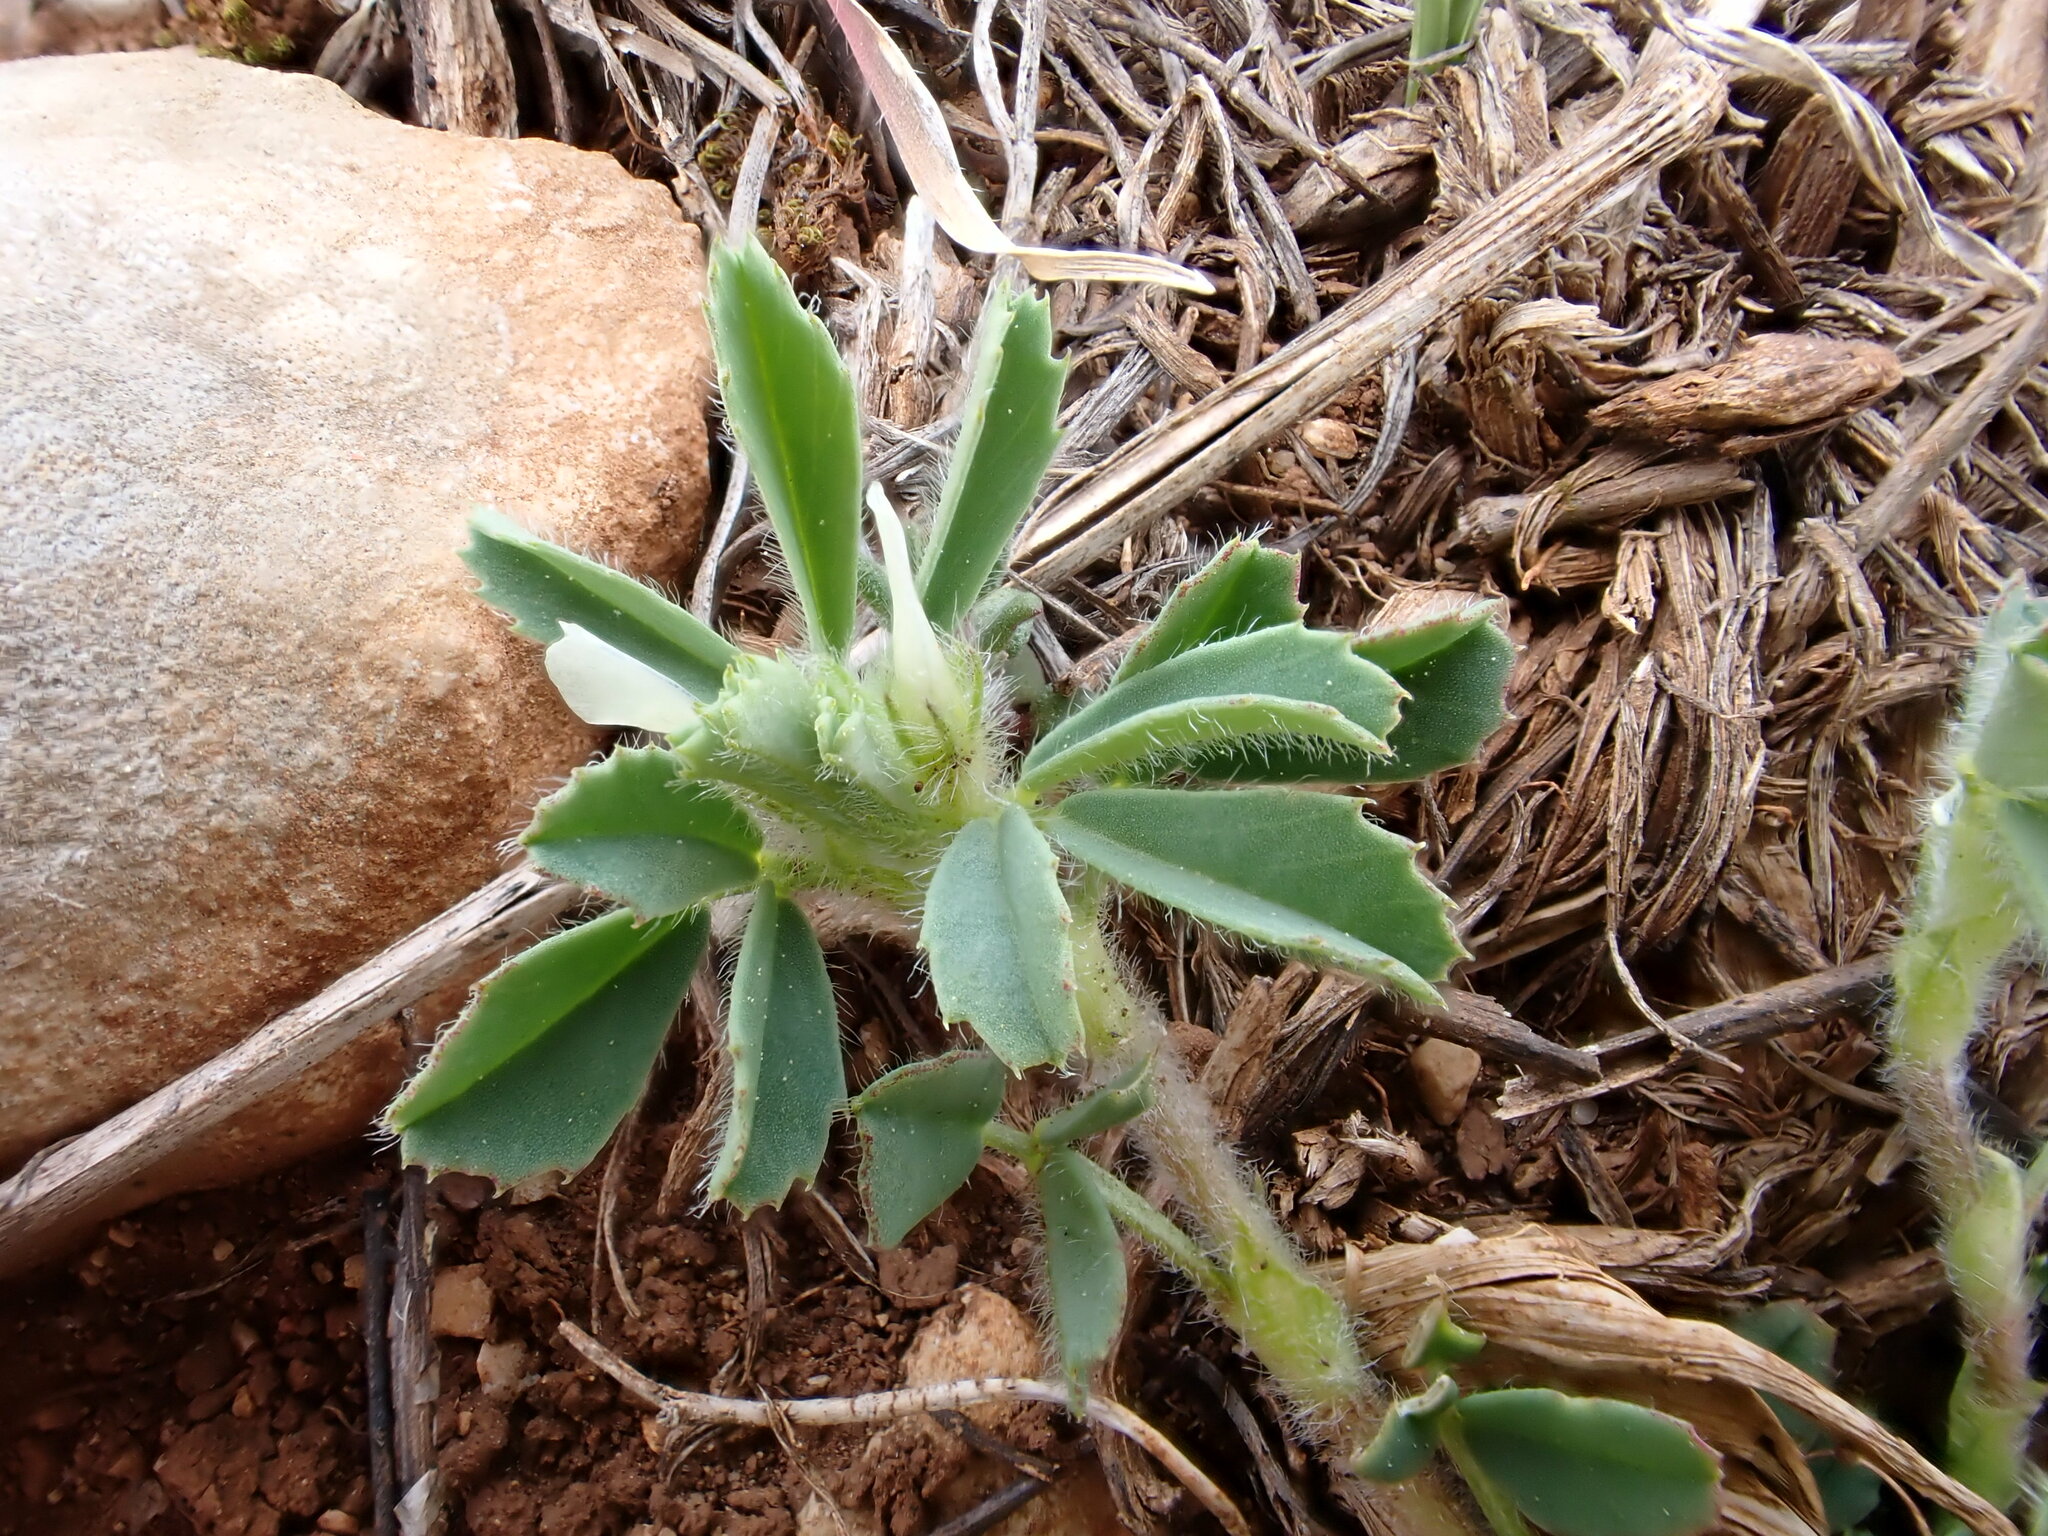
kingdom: Plantae
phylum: Tracheophyta
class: Magnoliopsida
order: Fabales
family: Fabaceae
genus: Trigonella
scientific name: Trigonella gladiata
